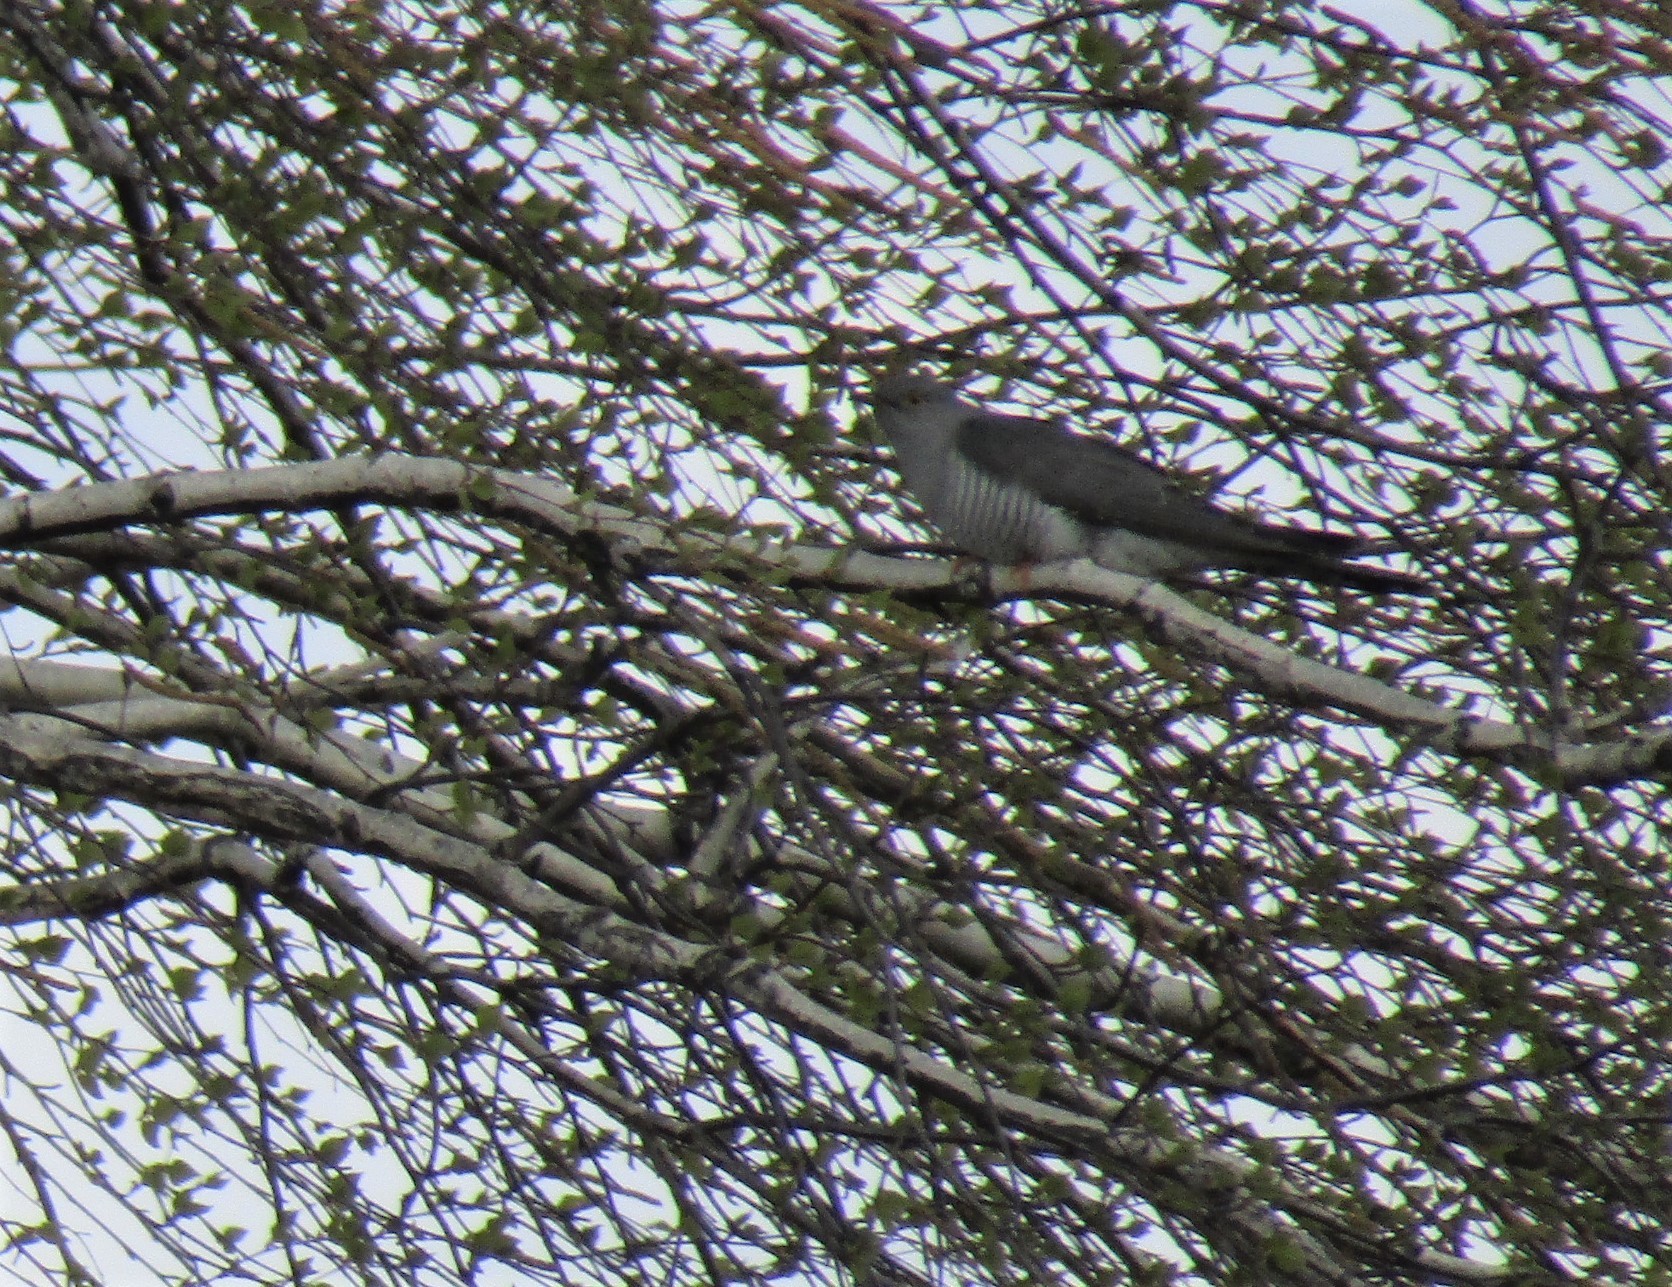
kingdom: Animalia
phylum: Chordata
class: Aves
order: Cuculiformes
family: Cuculidae
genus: Cuculus
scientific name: Cuculus canorus
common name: Common cuckoo
